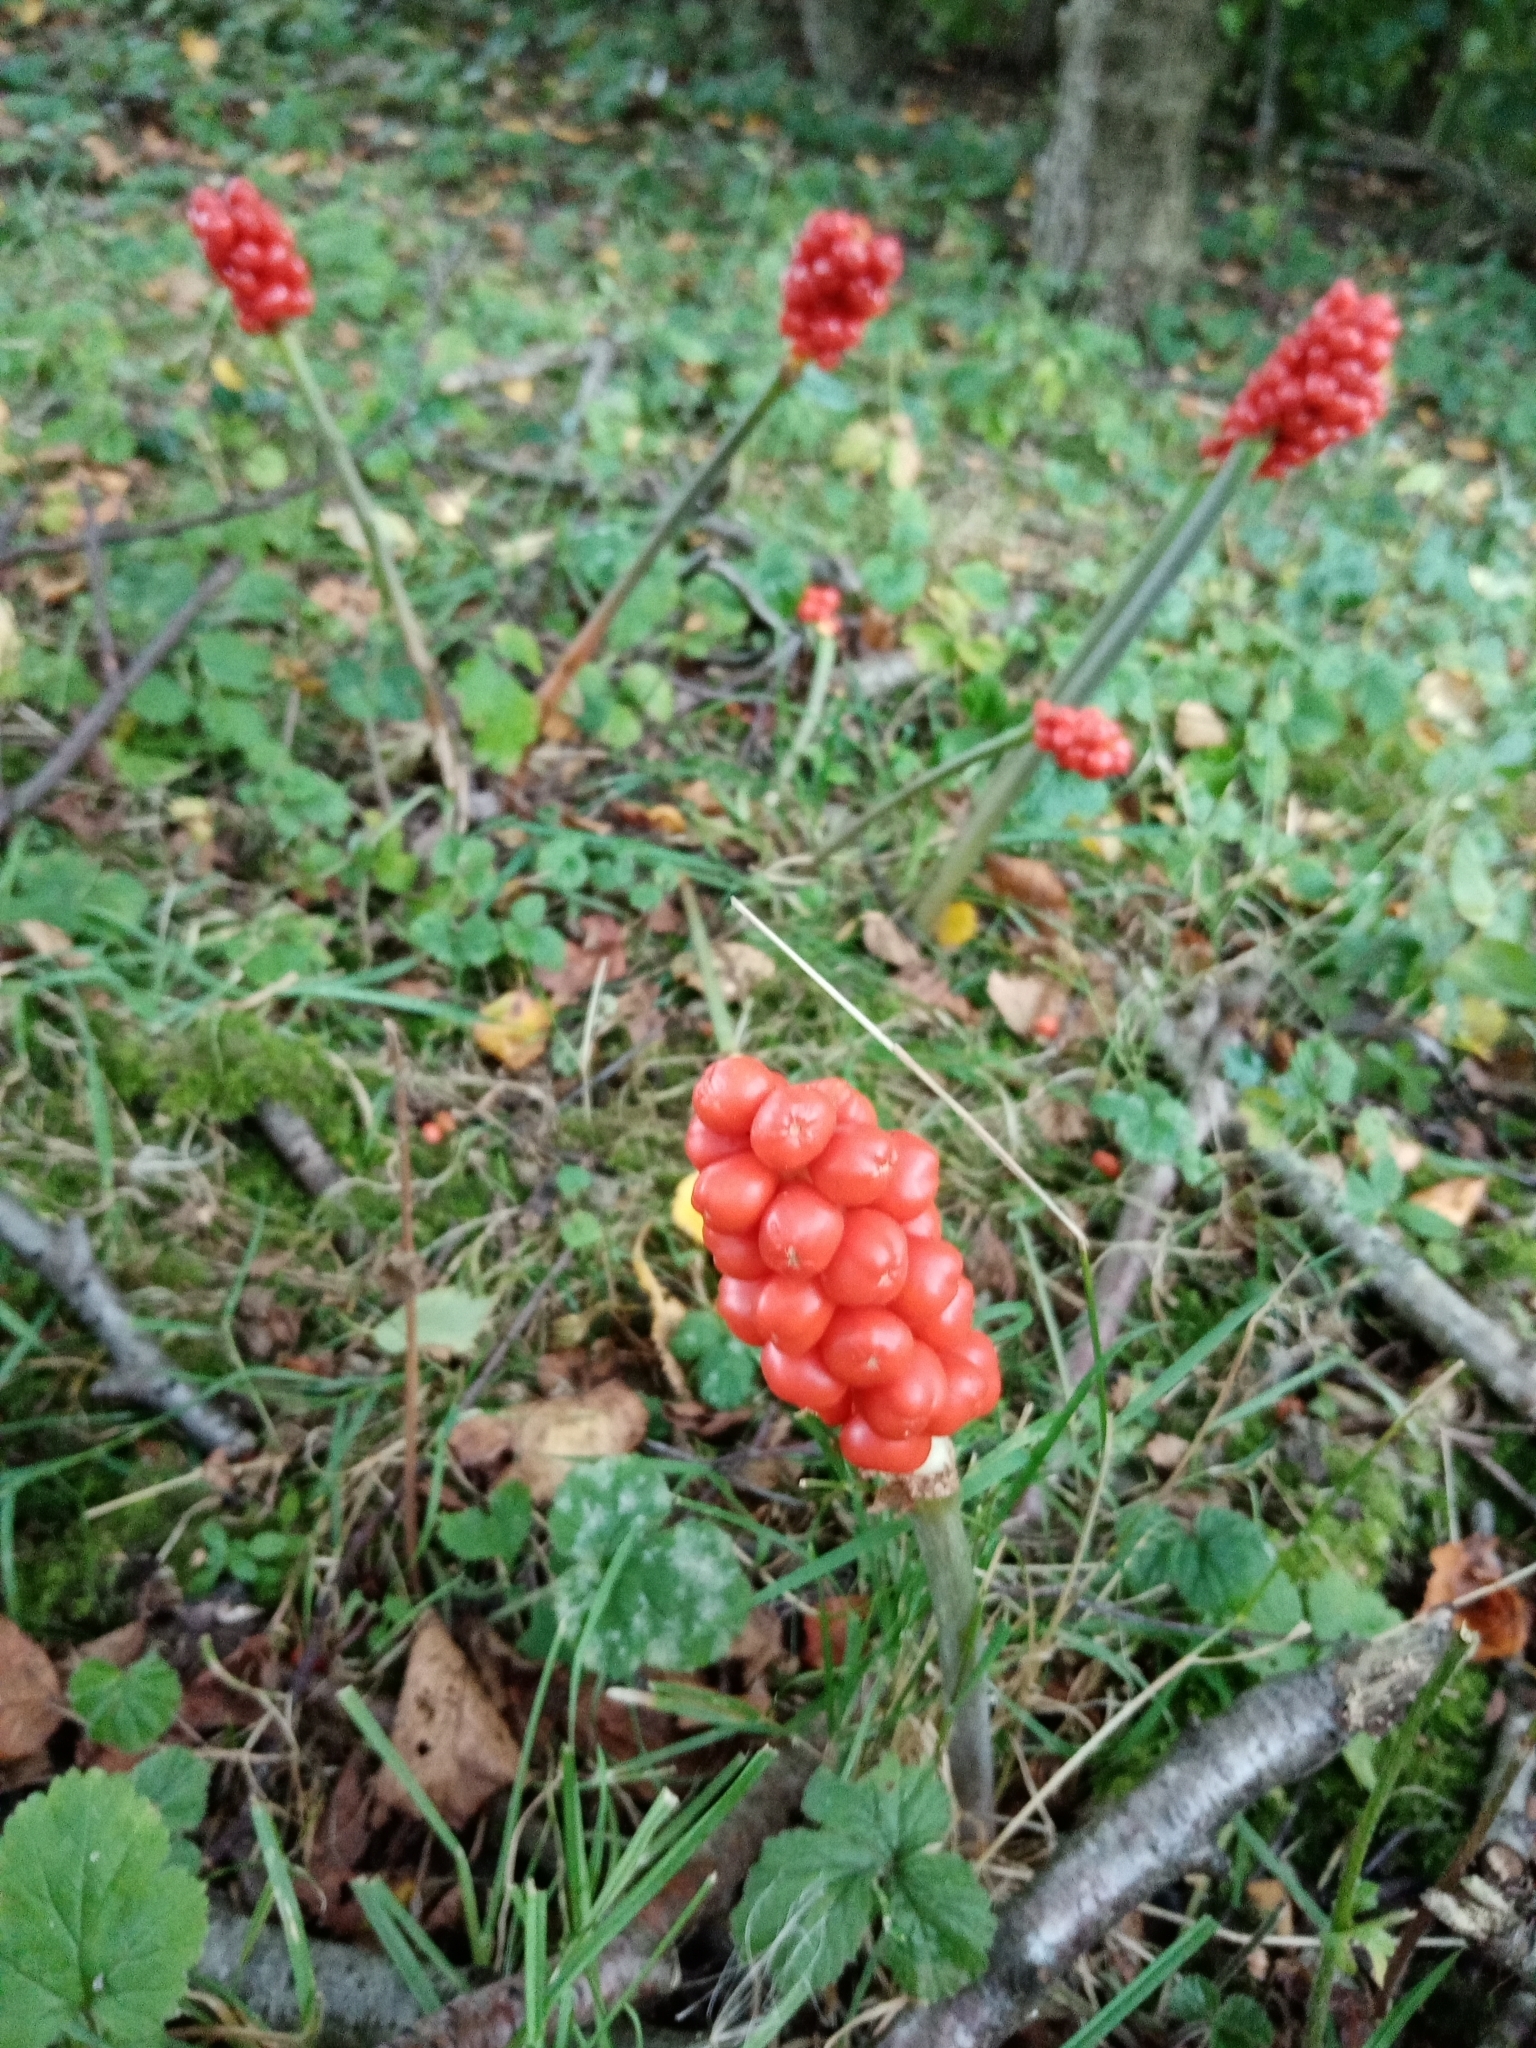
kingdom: Plantae
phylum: Tracheophyta
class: Liliopsida
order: Alismatales
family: Araceae
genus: Arum
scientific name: Arum maculatum
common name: Lords-and-ladies
